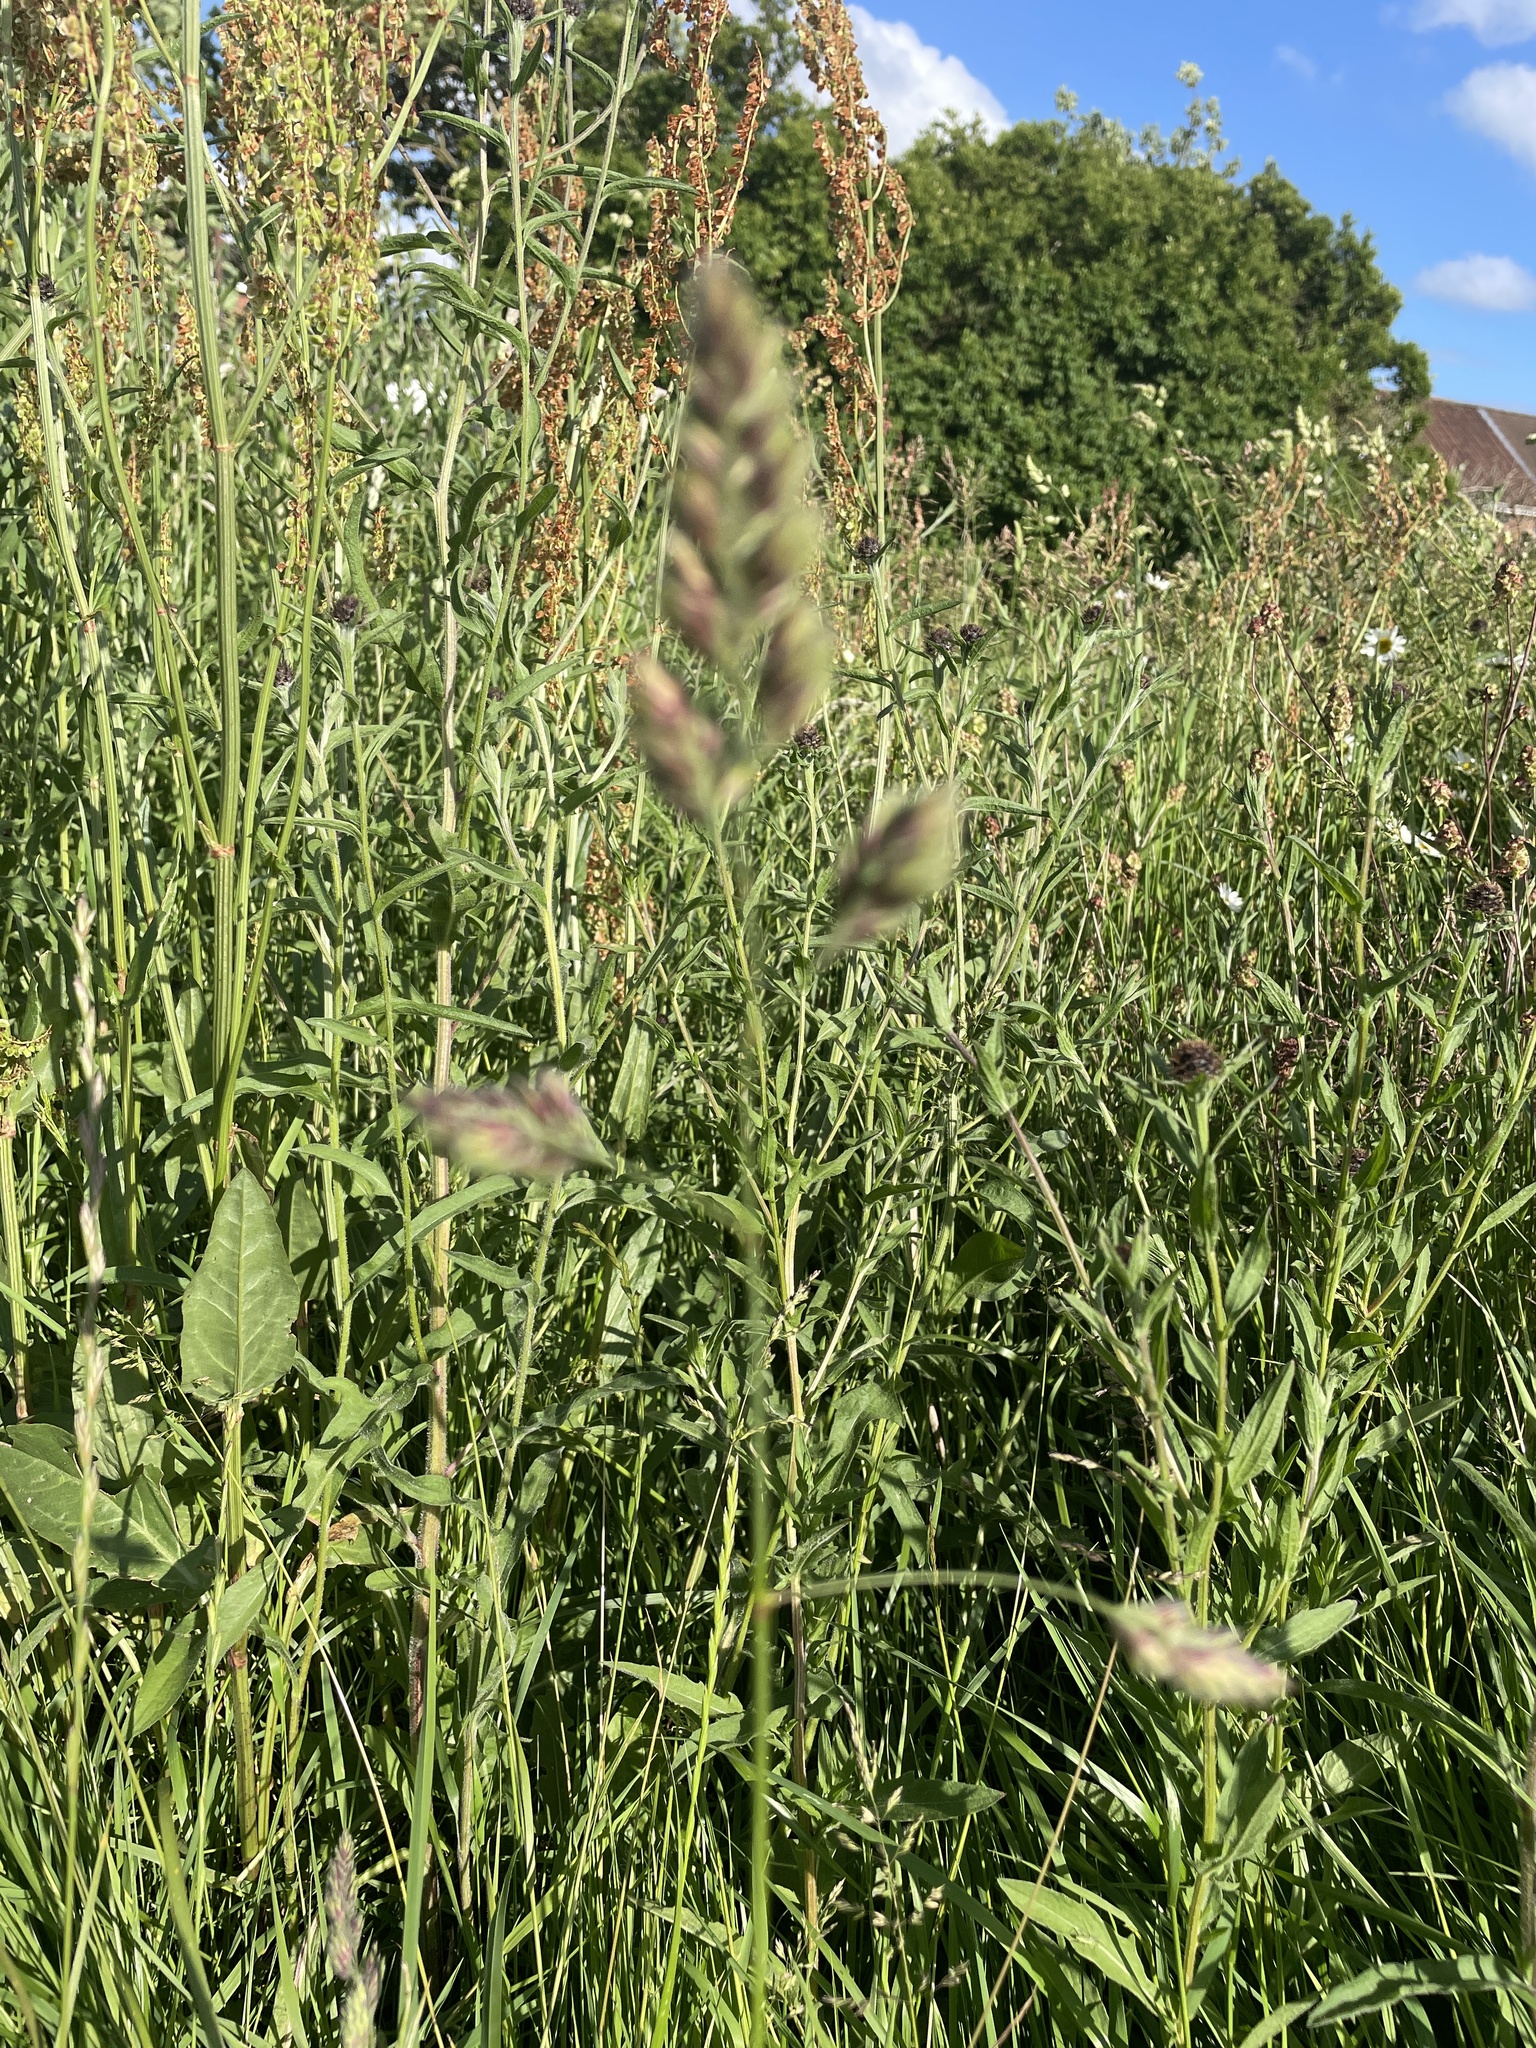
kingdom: Plantae
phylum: Tracheophyta
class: Liliopsida
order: Poales
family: Poaceae
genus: Dactylis
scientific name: Dactylis glomerata
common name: Orchardgrass
